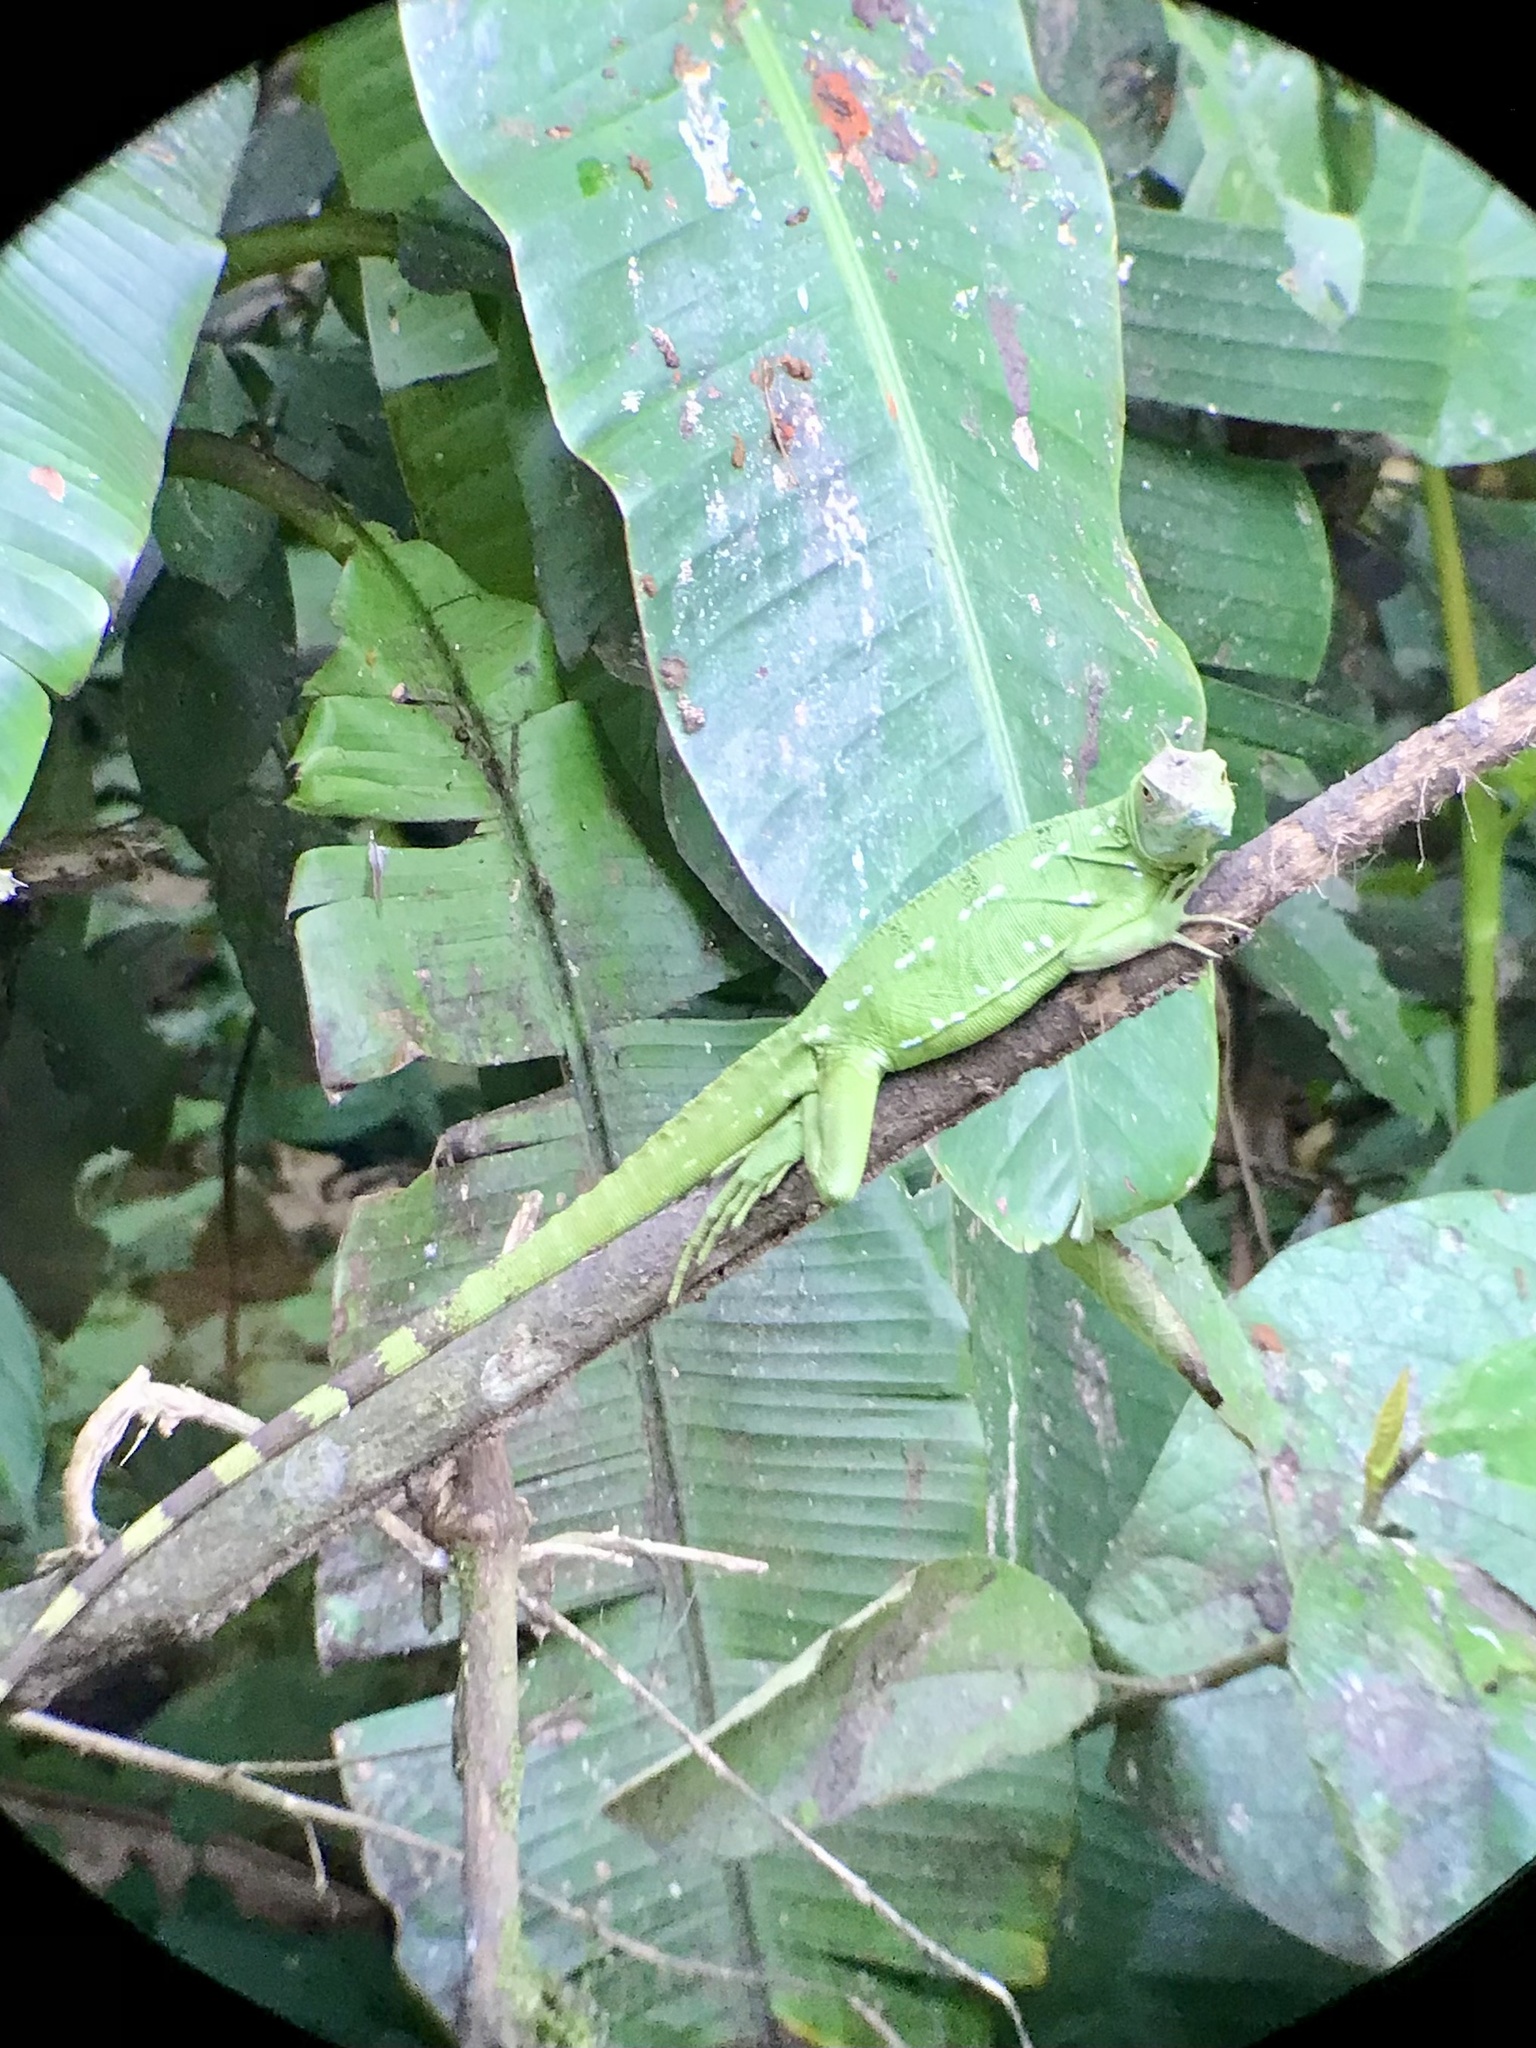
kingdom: Animalia
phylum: Chordata
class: Squamata
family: Corytophanidae
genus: Basiliscus
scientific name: Basiliscus plumifrons
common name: Green basilisk
